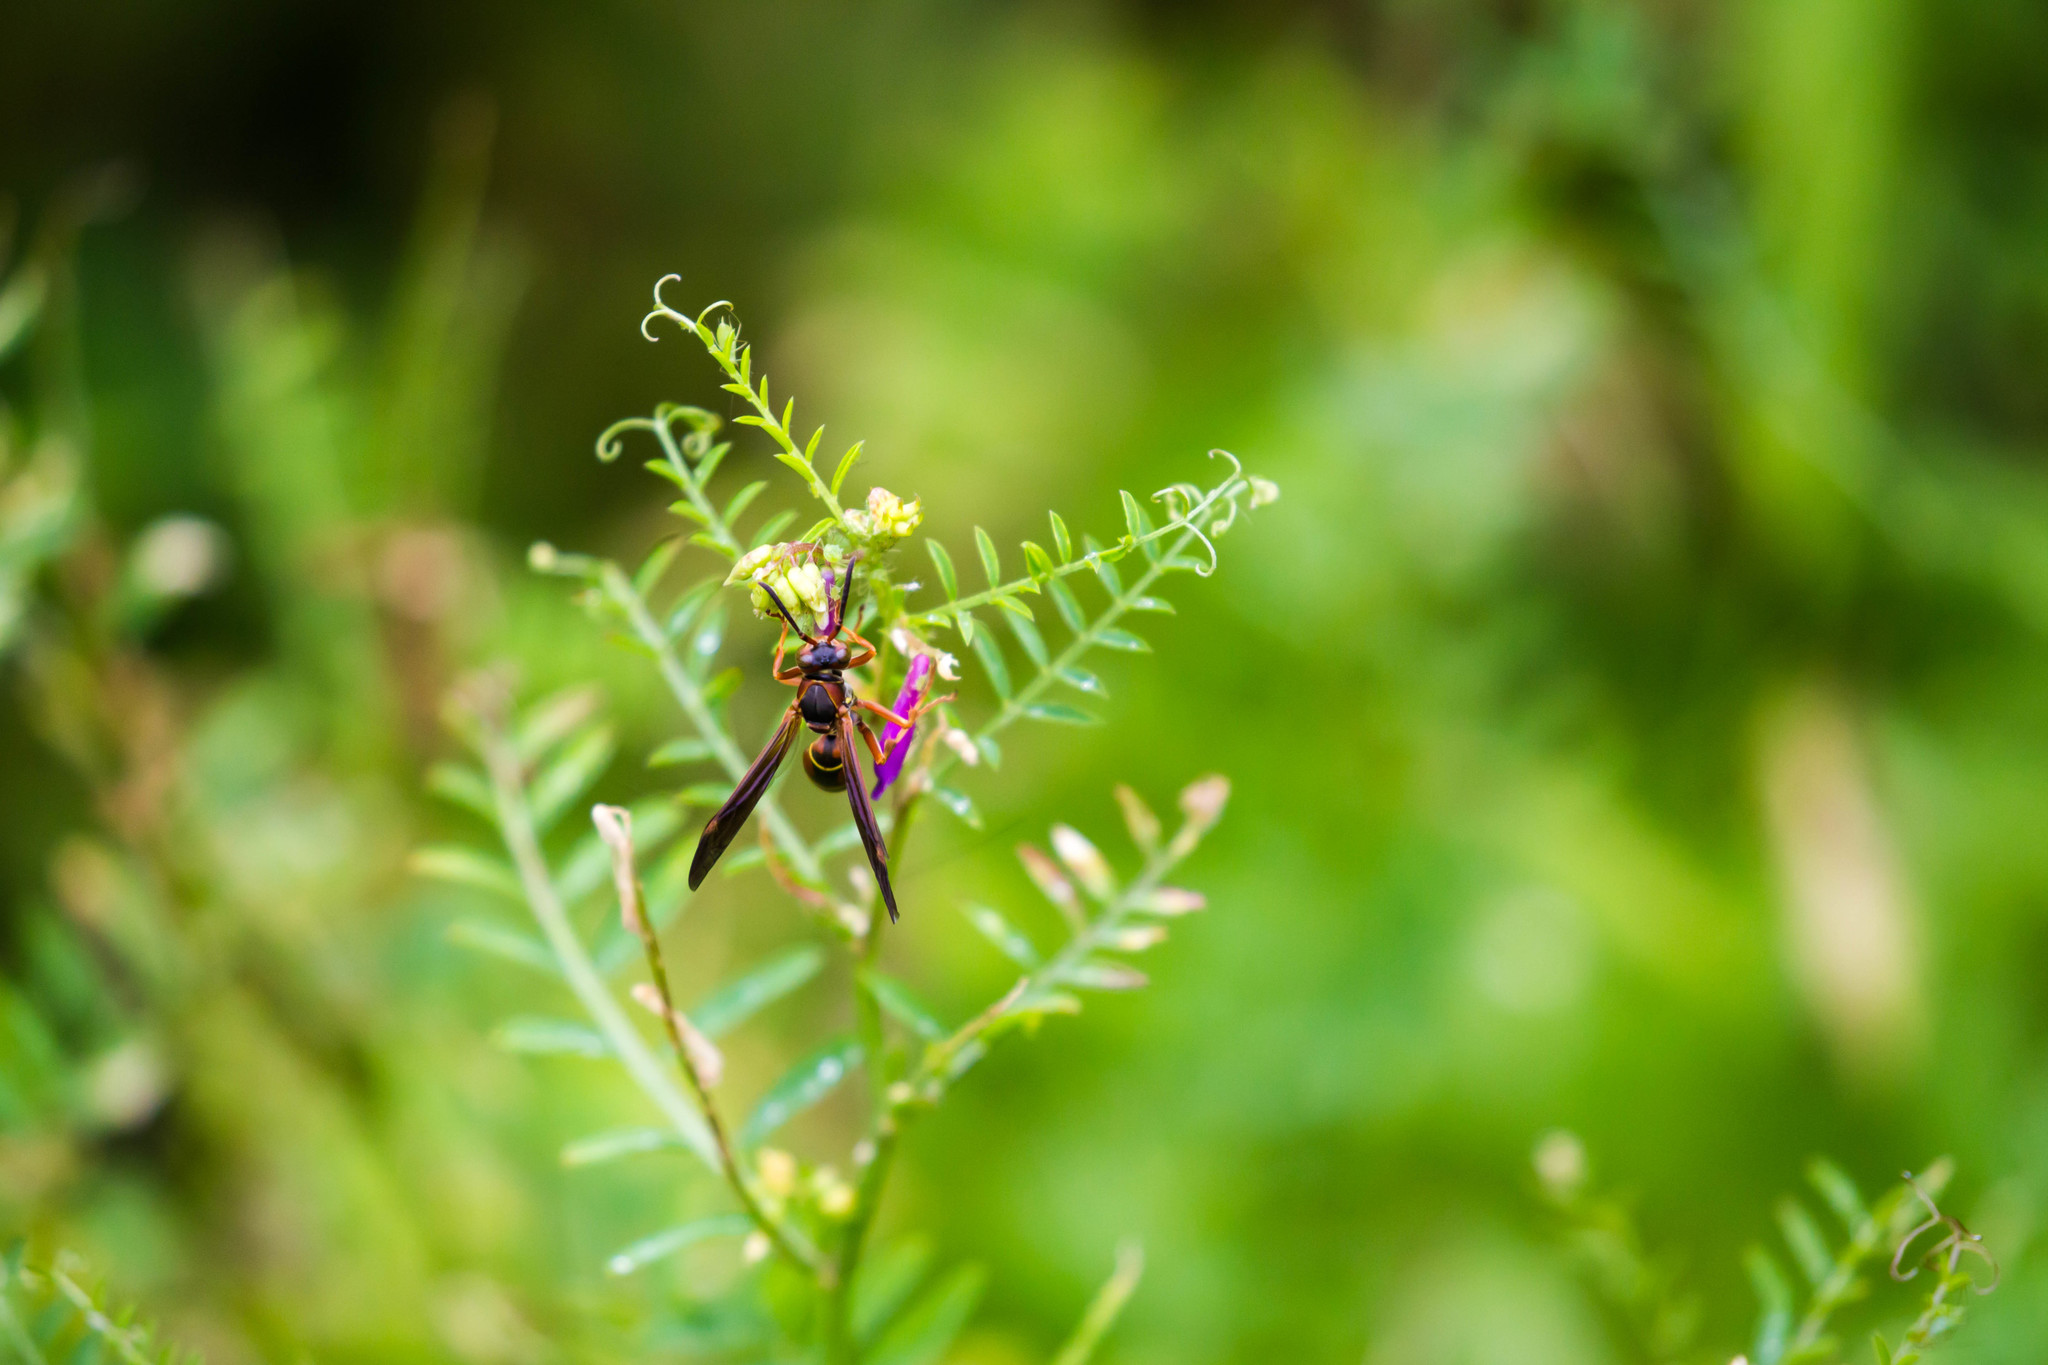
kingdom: Animalia
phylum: Arthropoda
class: Insecta
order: Hymenoptera
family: Eumenidae
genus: Polistes
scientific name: Polistes fuscatus
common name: Dark paper wasp
